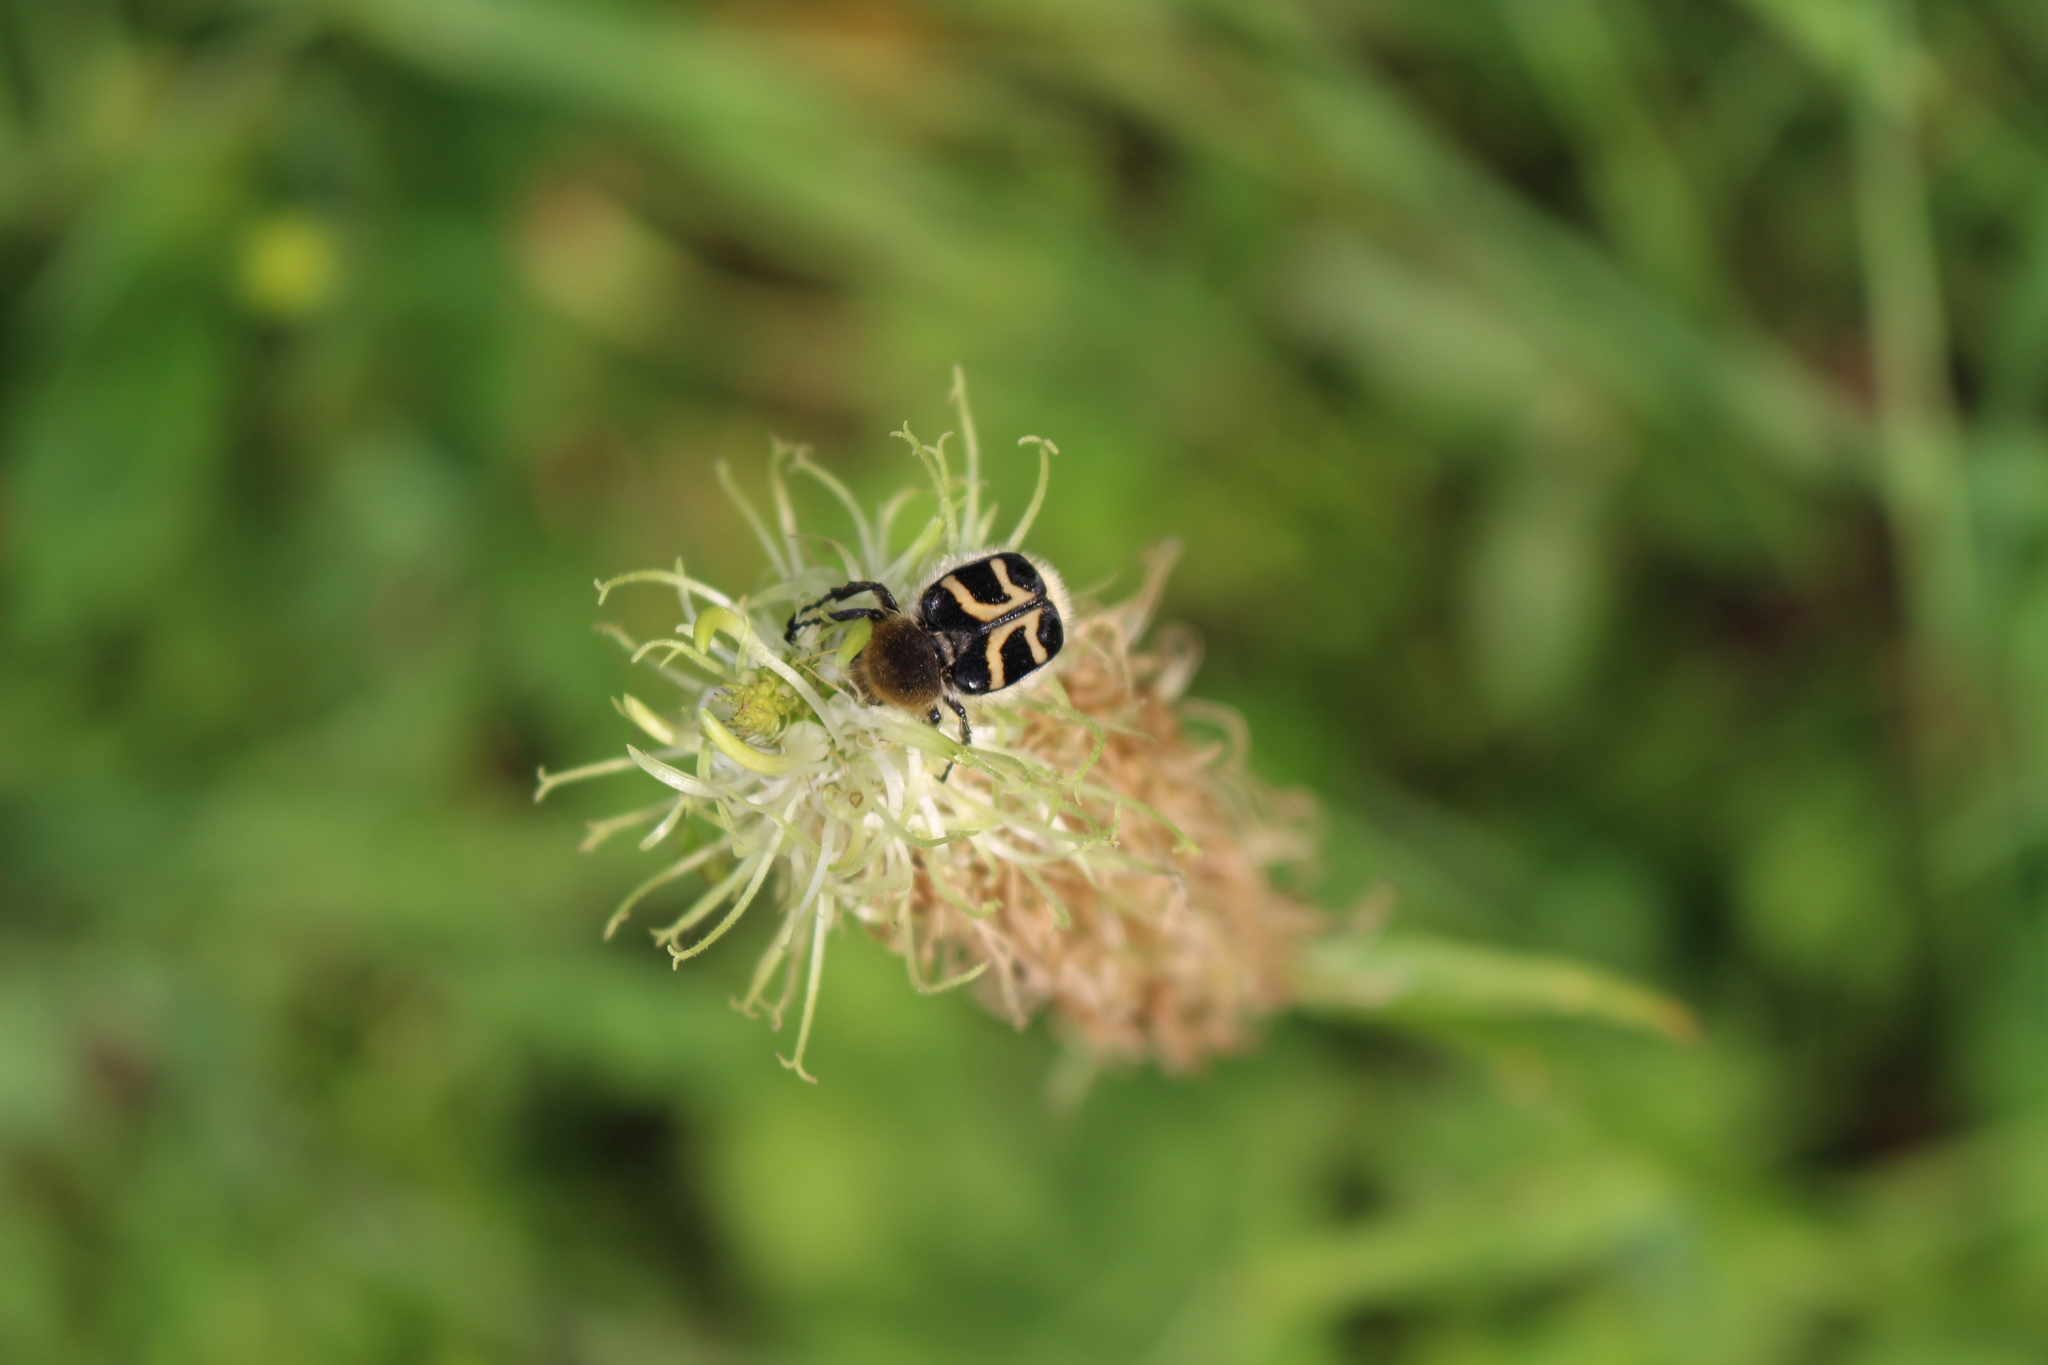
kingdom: Animalia
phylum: Arthropoda
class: Insecta
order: Coleoptera
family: Scarabaeidae
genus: Trichius
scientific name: Trichius fasciatus
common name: Bee beetle
